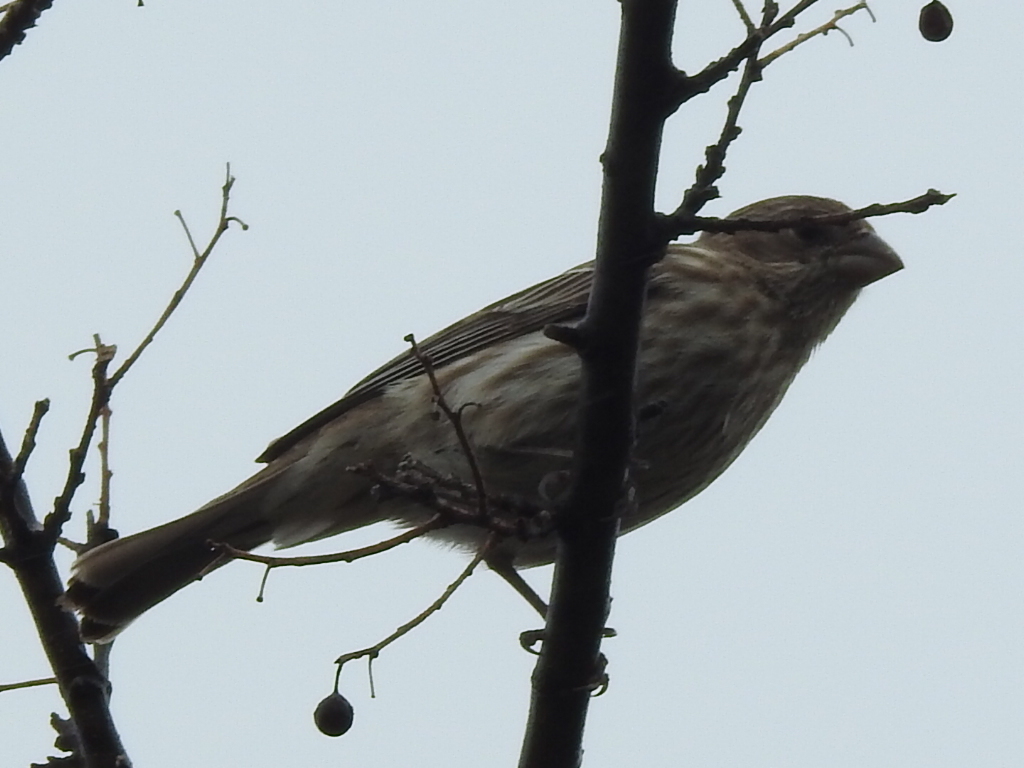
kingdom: Animalia
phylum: Chordata
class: Aves
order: Passeriformes
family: Fringillidae
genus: Haemorhous
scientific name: Haemorhous mexicanus
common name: House finch
